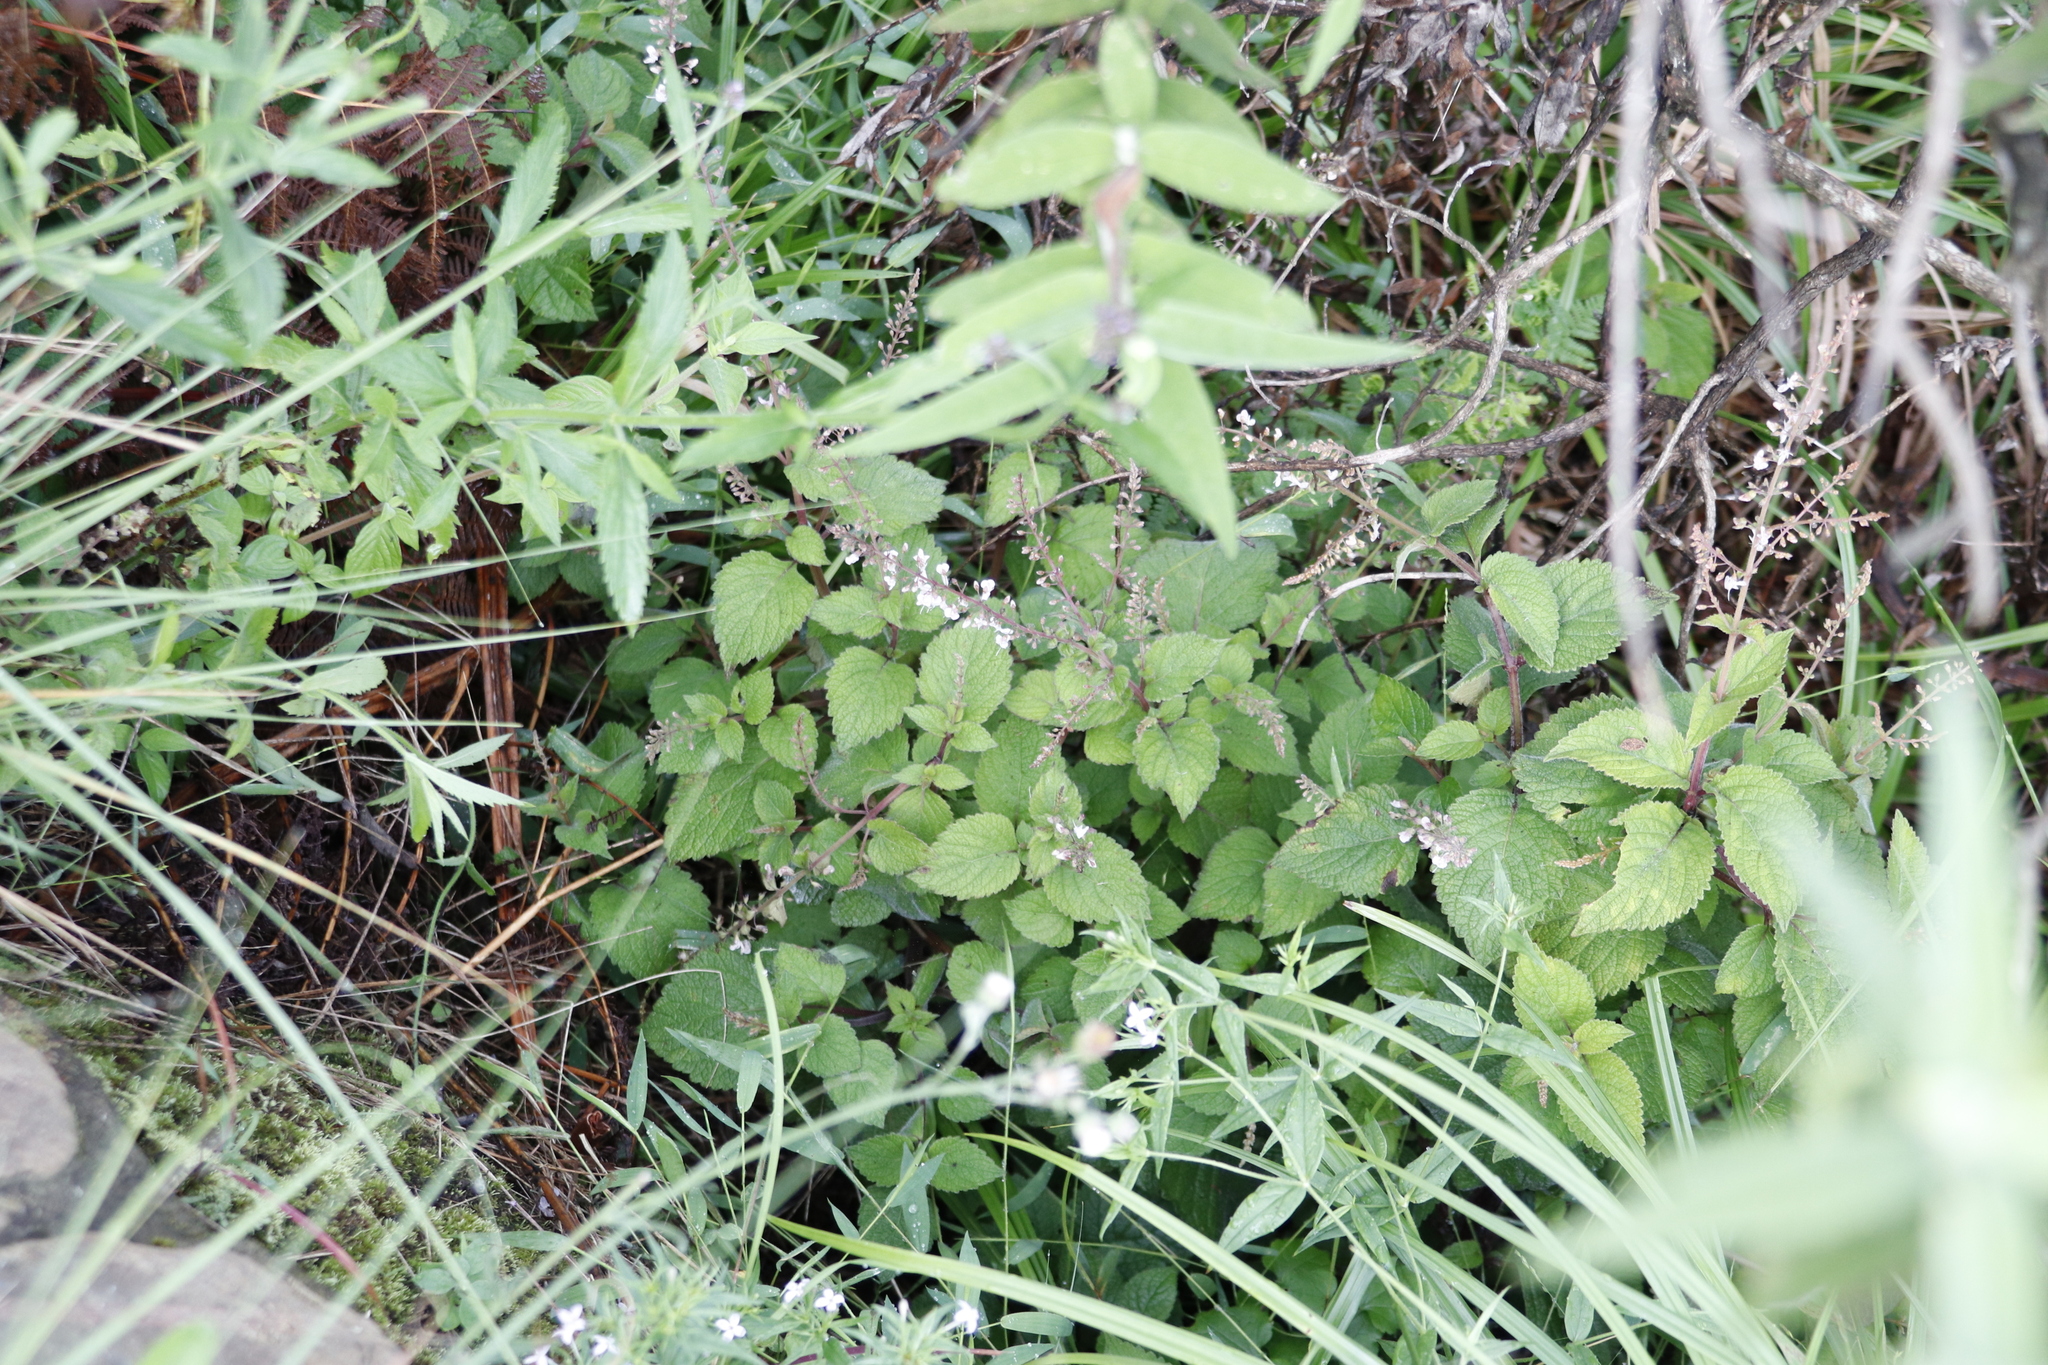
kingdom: Plantae
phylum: Tracheophyta
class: Magnoliopsida
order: Lamiales
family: Lamiaceae
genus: Plectranthus
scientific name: Plectranthus fruticosus
